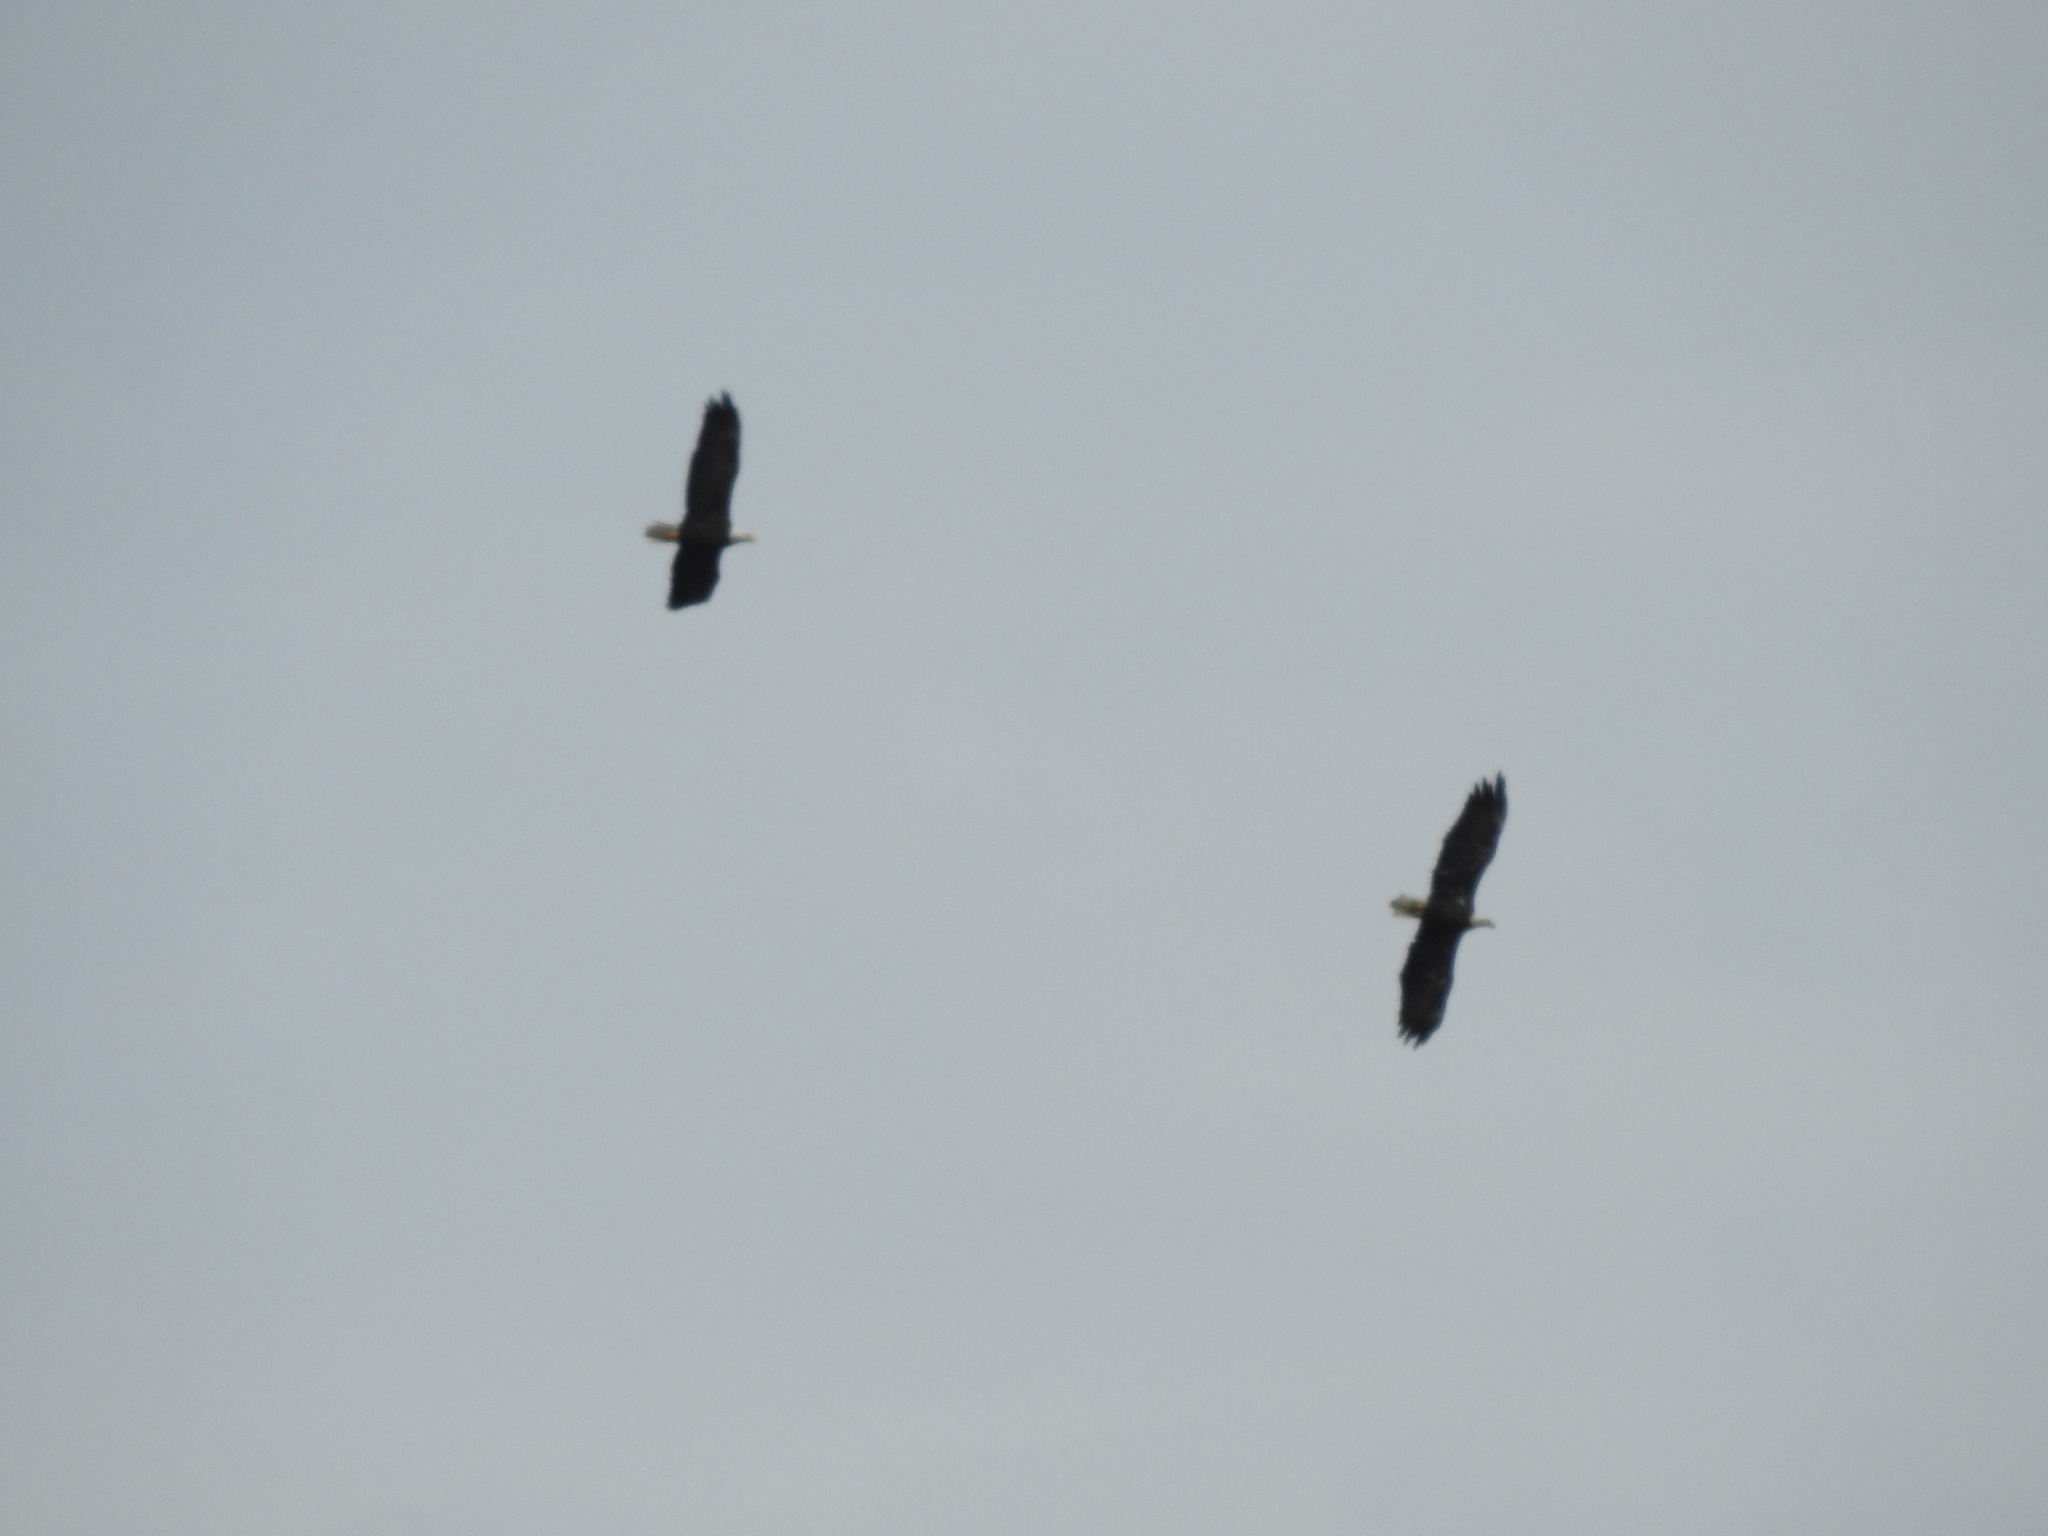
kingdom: Animalia
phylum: Chordata
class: Aves
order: Accipitriformes
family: Accipitridae
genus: Haliaeetus
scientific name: Haliaeetus leucocephalus
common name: Bald eagle
